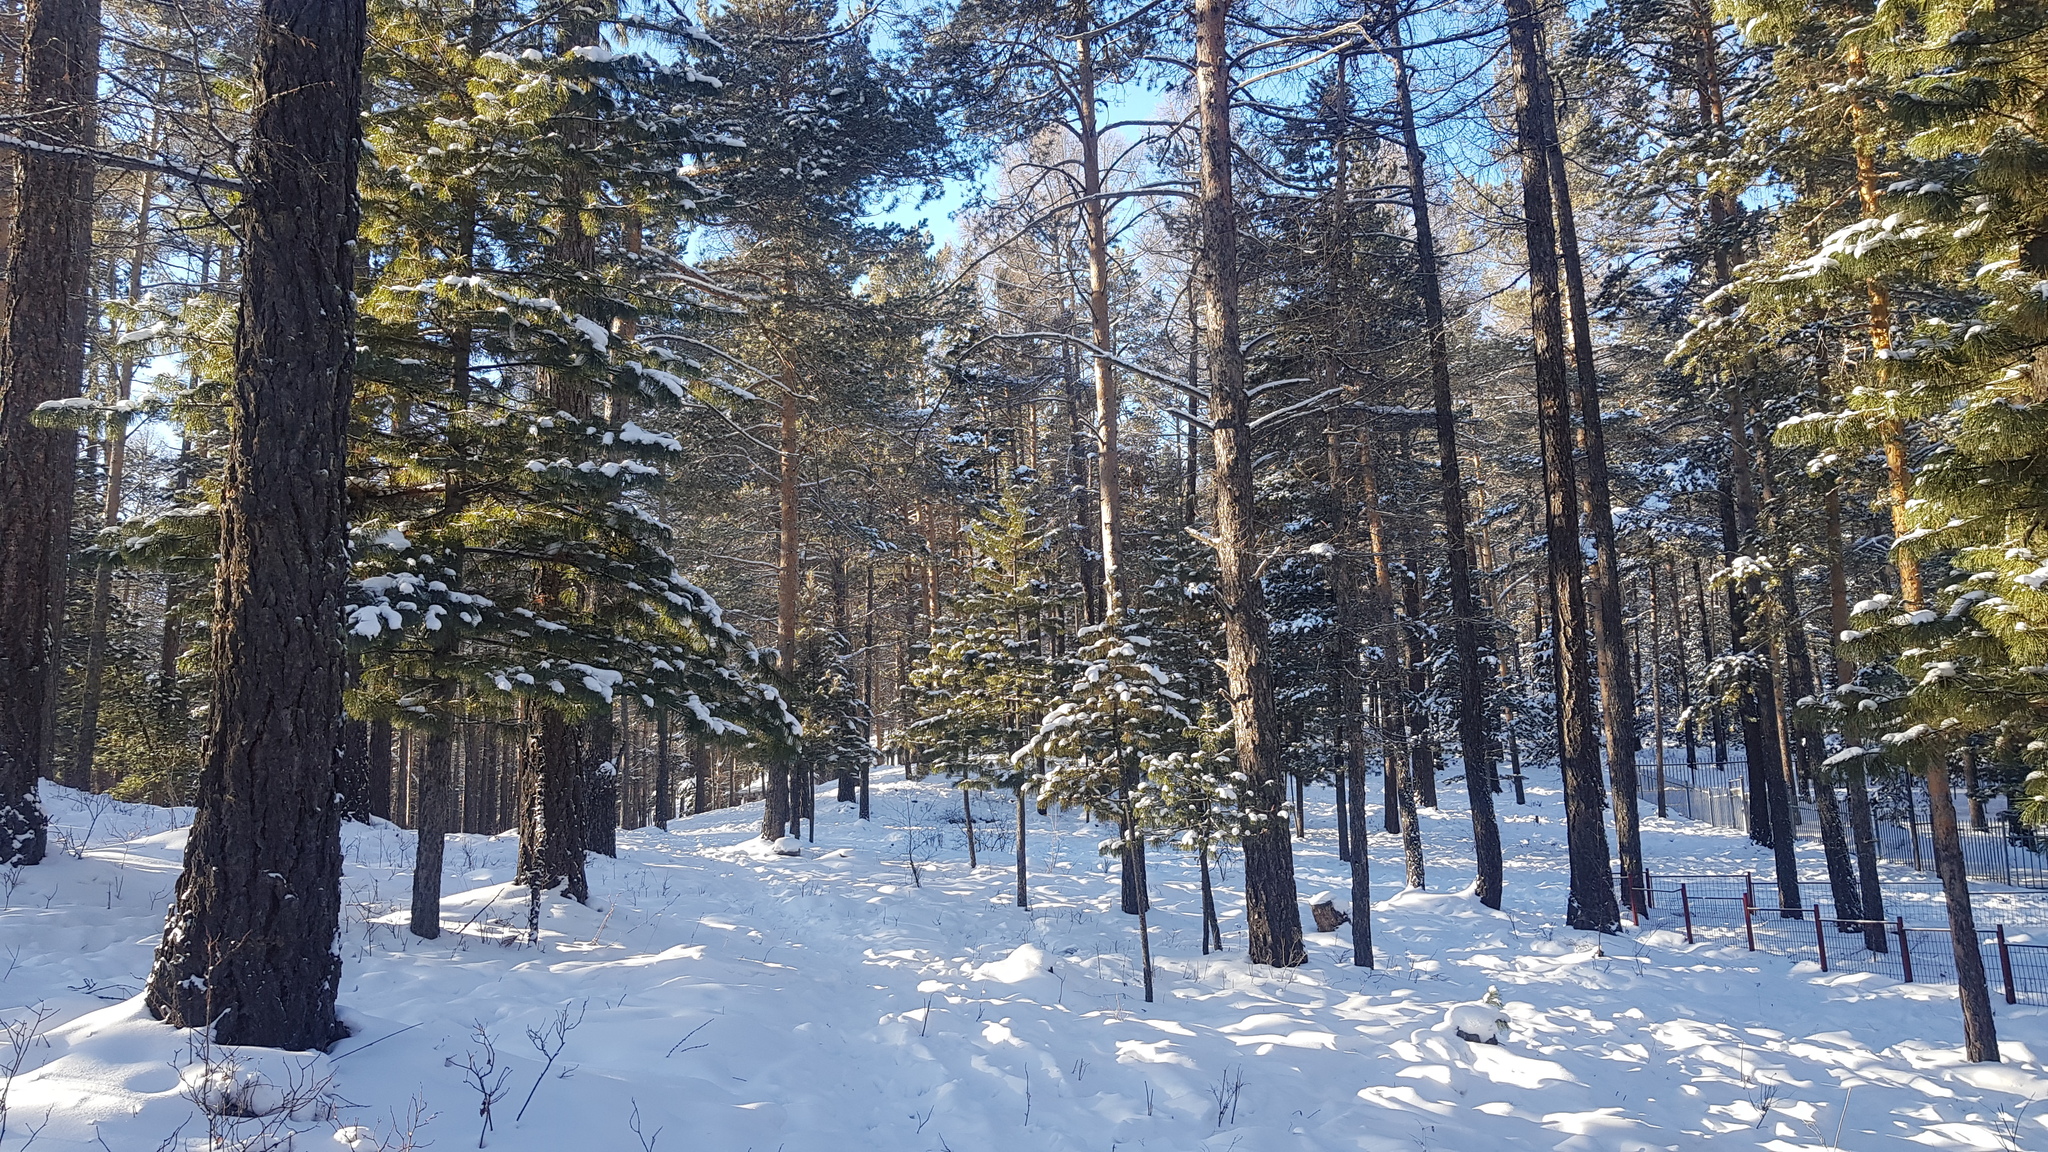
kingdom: Plantae
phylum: Tracheophyta
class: Pinopsida
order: Pinales
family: Pinaceae
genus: Pinus
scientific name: Pinus sylvestris
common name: Scots pine
